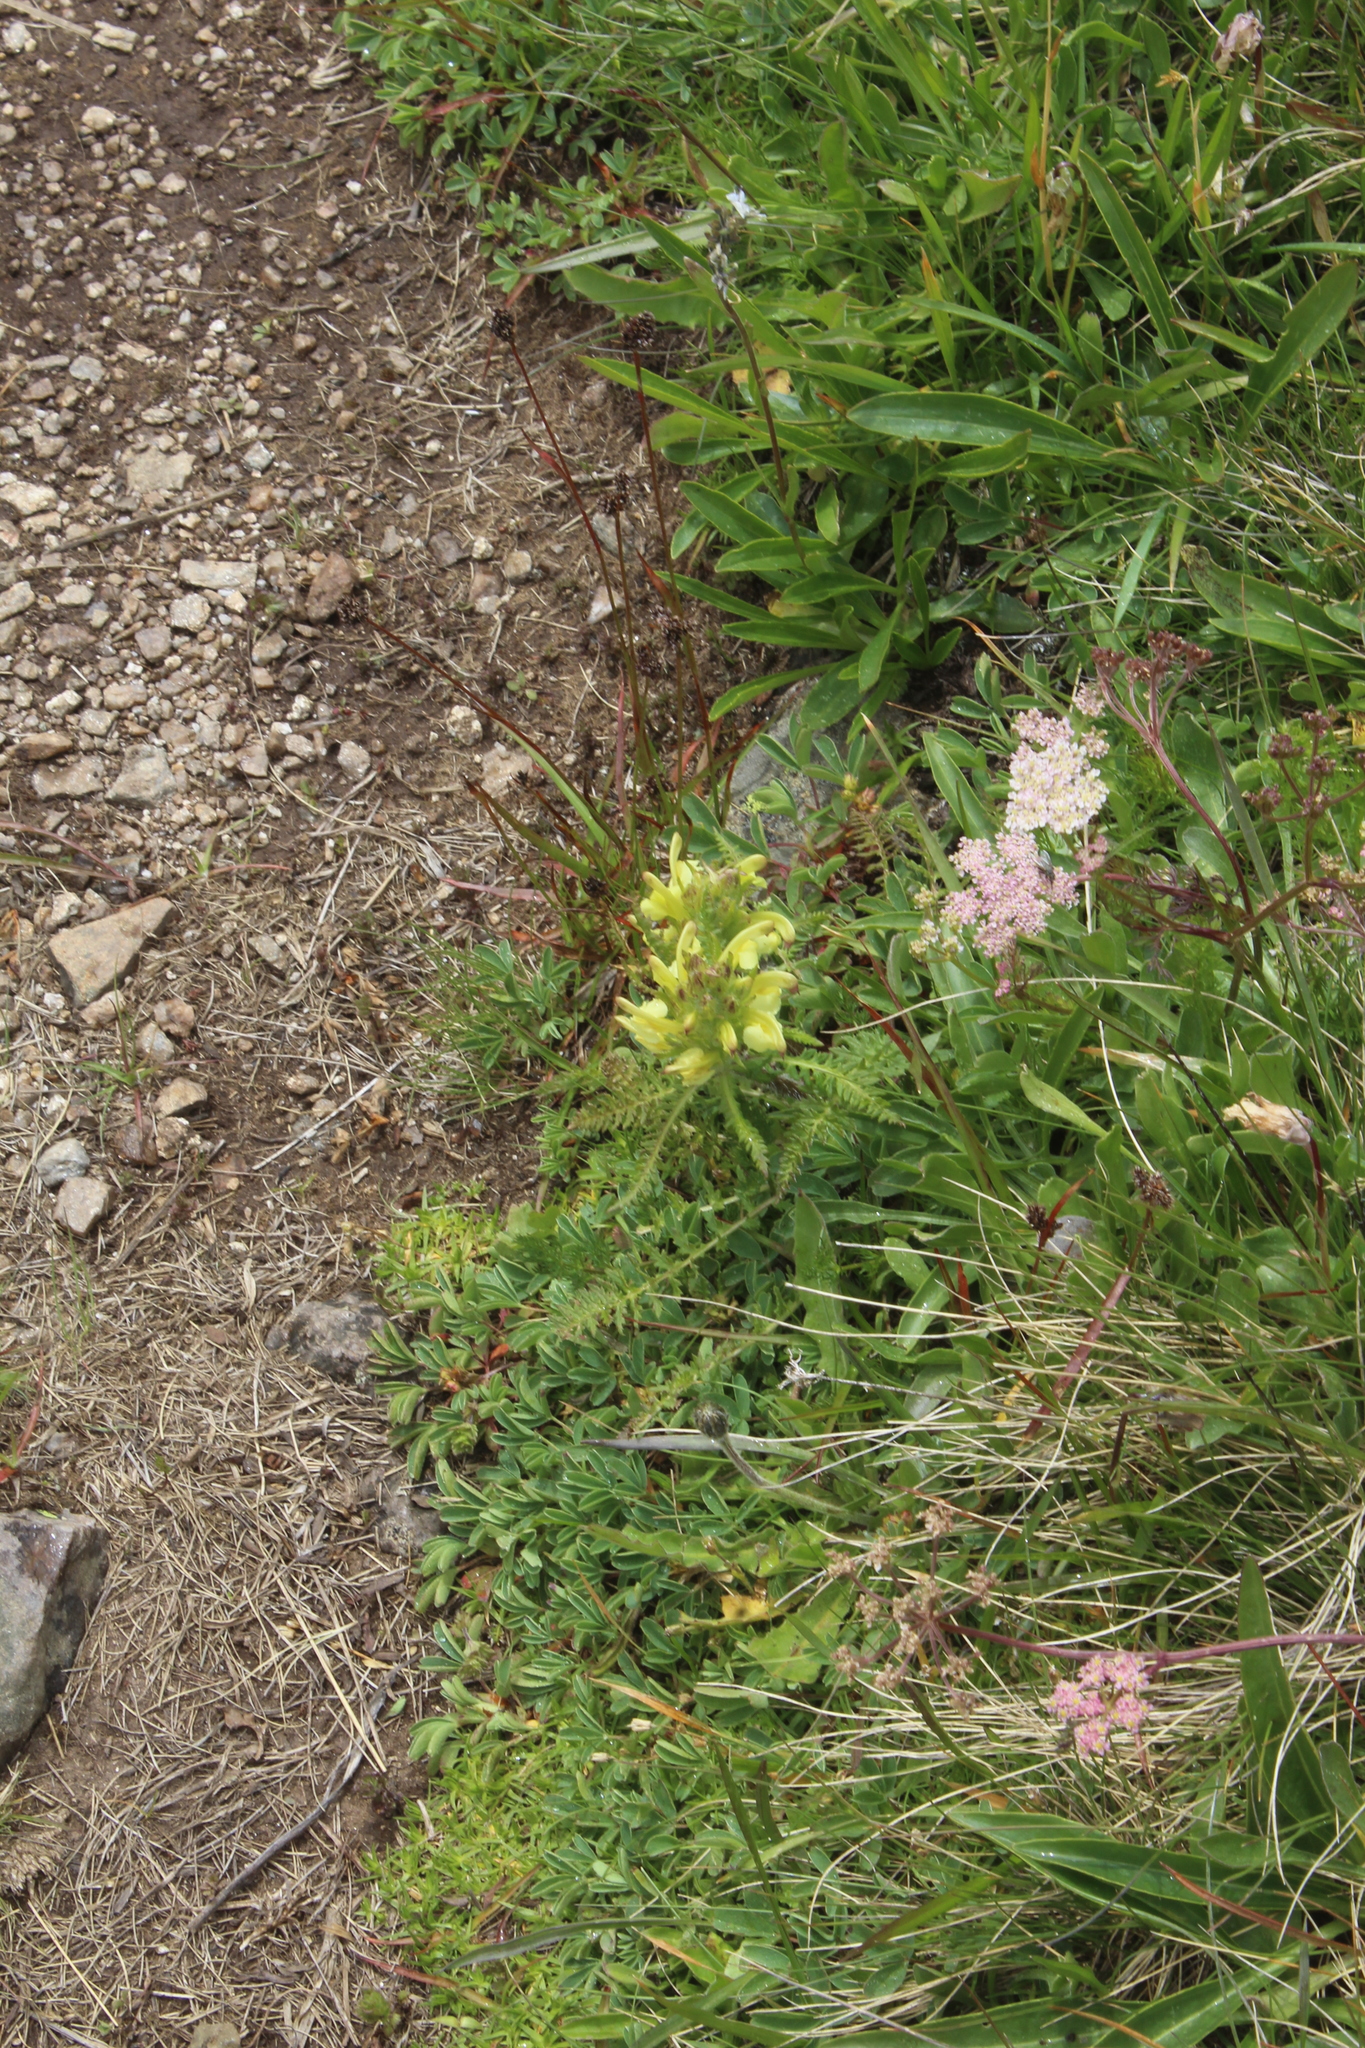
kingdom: Plantae
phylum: Tracheophyta
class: Magnoliopsida
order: Lamiales
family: Orobanchaceae
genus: Pedicularis
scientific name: Pedicularis sibthorpii
